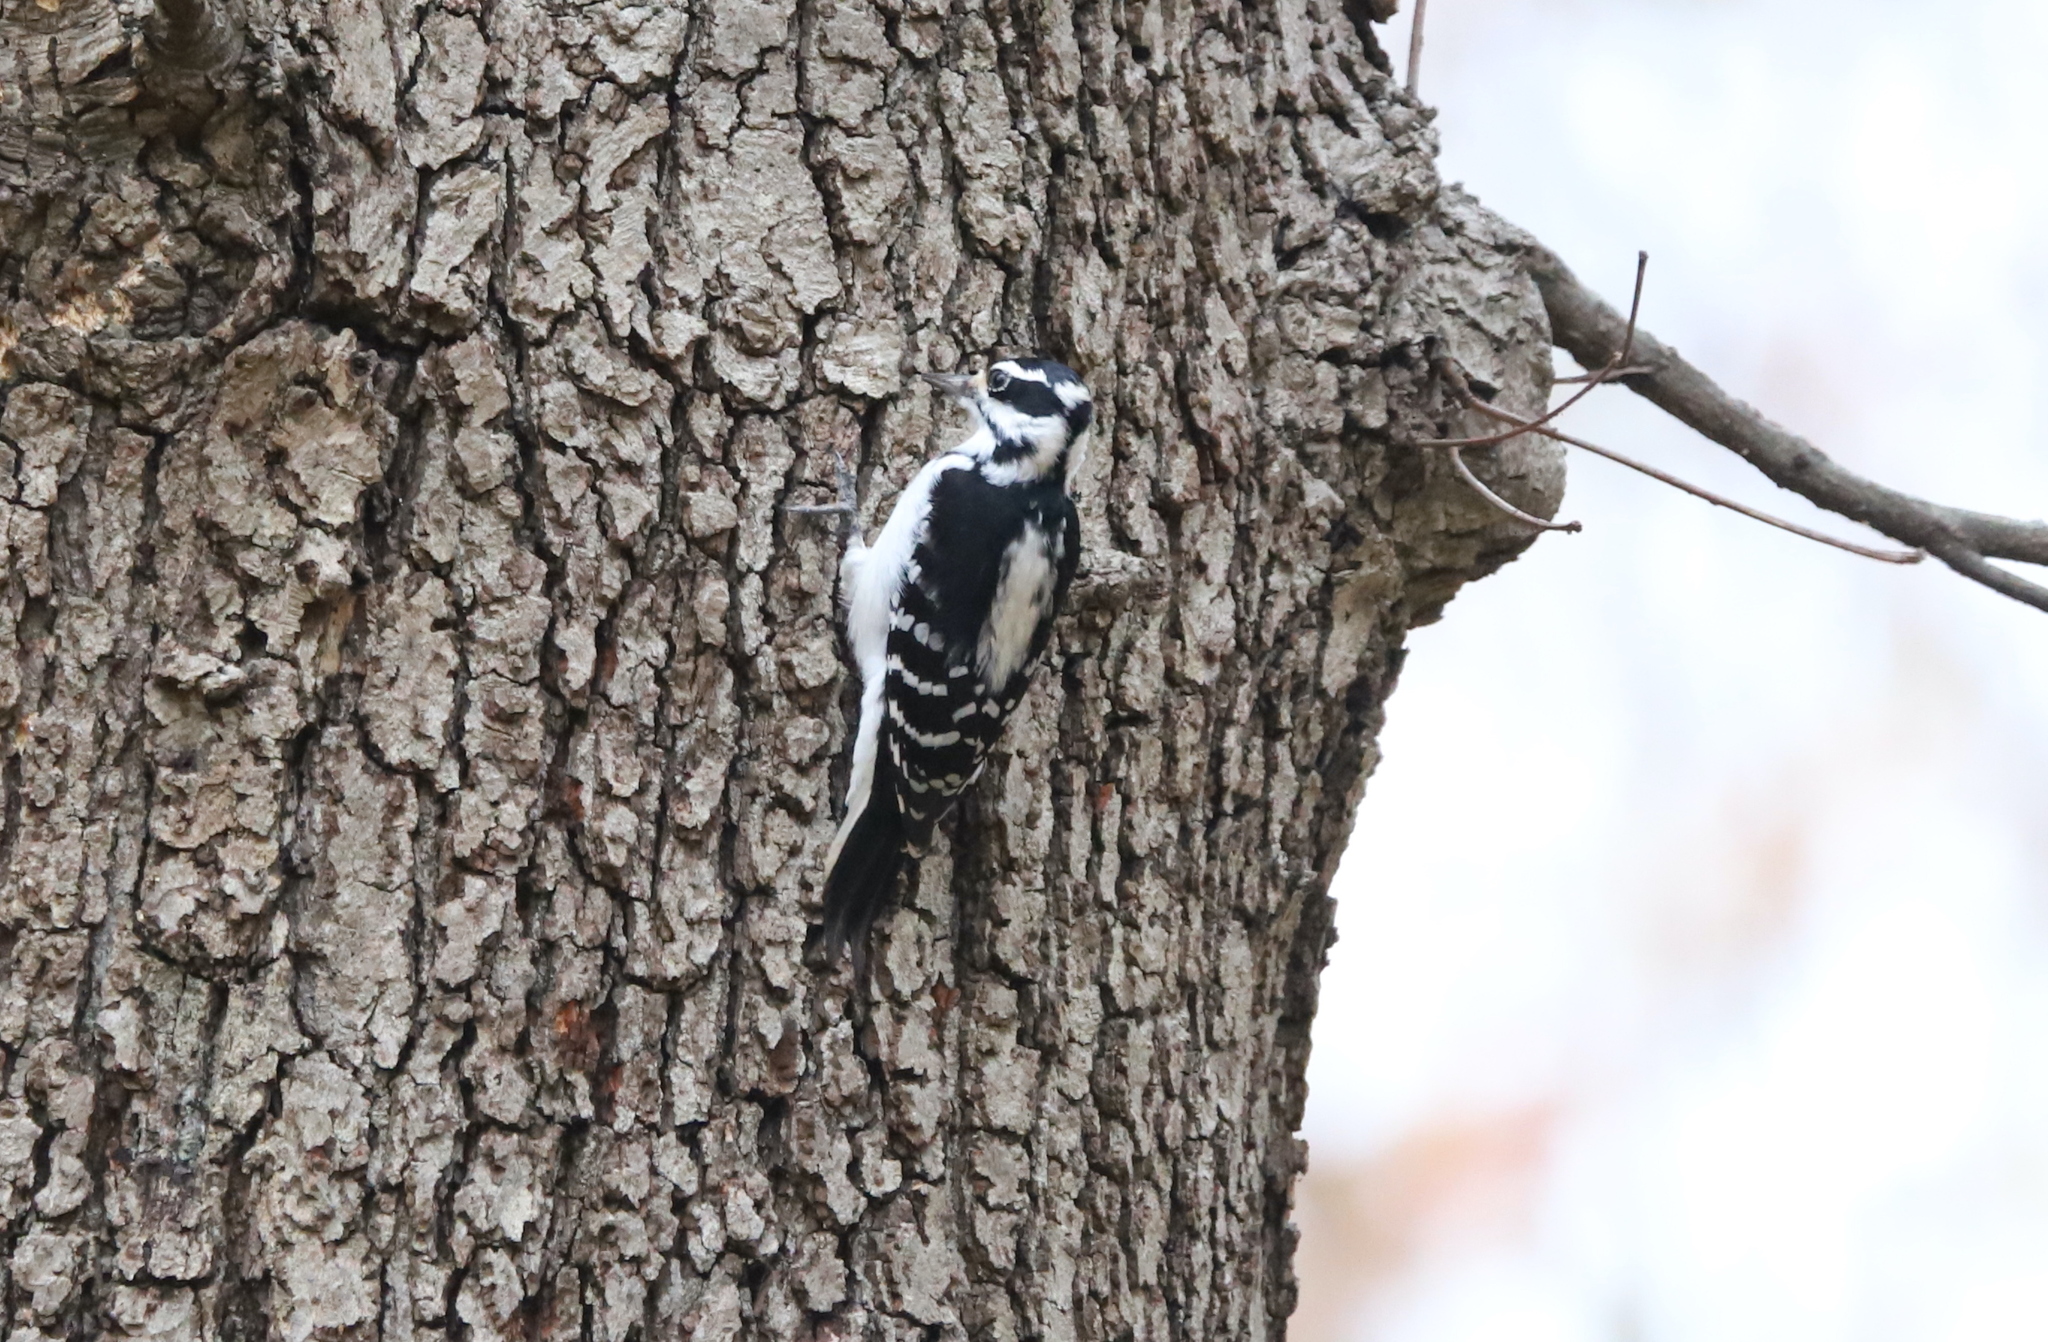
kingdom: Animalia
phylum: Chordata
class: Aves
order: Piciformes
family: Picidae
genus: Leuconotopicus
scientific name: Leuconotopicus villosus
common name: Hairy woodpecker
